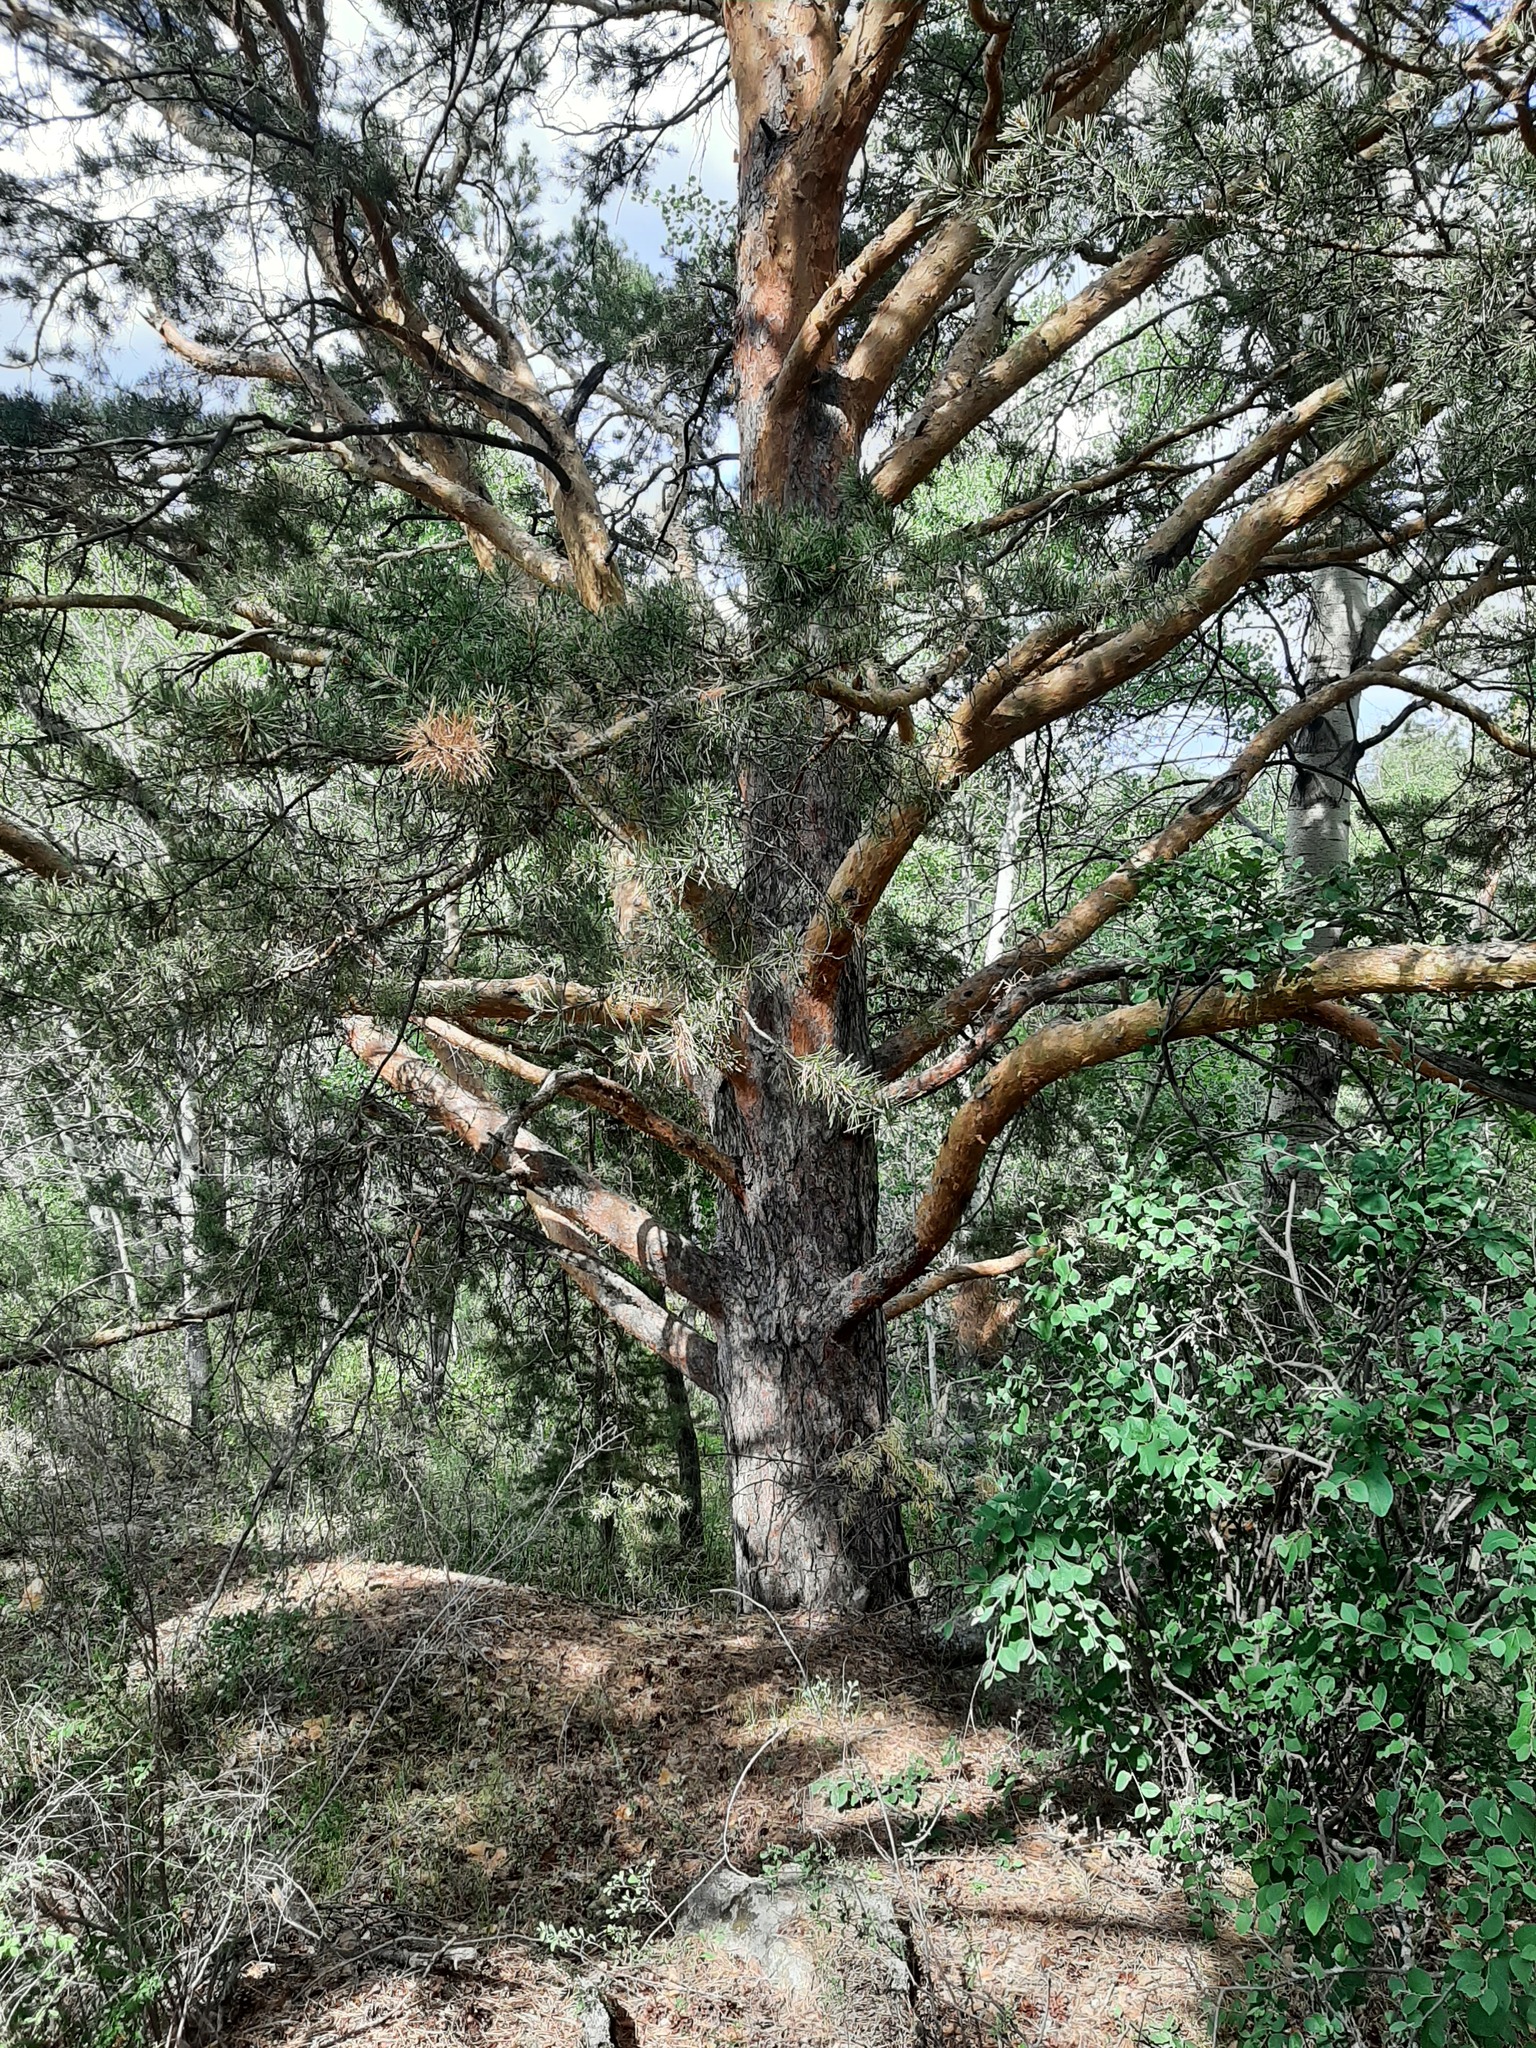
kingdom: Plantae
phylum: Tracheophyta
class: Pinopsida
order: Pinales
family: Pinaceae
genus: Pinus
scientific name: Pinus sylvestris
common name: Scots pine
